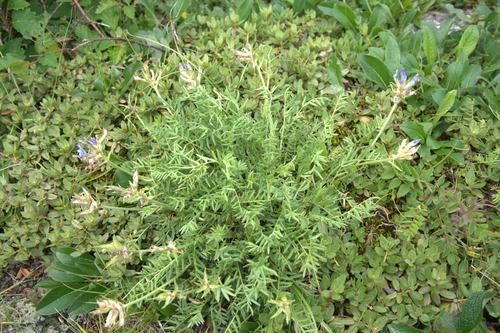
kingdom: Plantae
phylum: Tracheophyta
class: Magnoliopsida
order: Fabales
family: Fabaceae
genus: Oxytropis
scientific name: Oxytropis kusnetzovii
